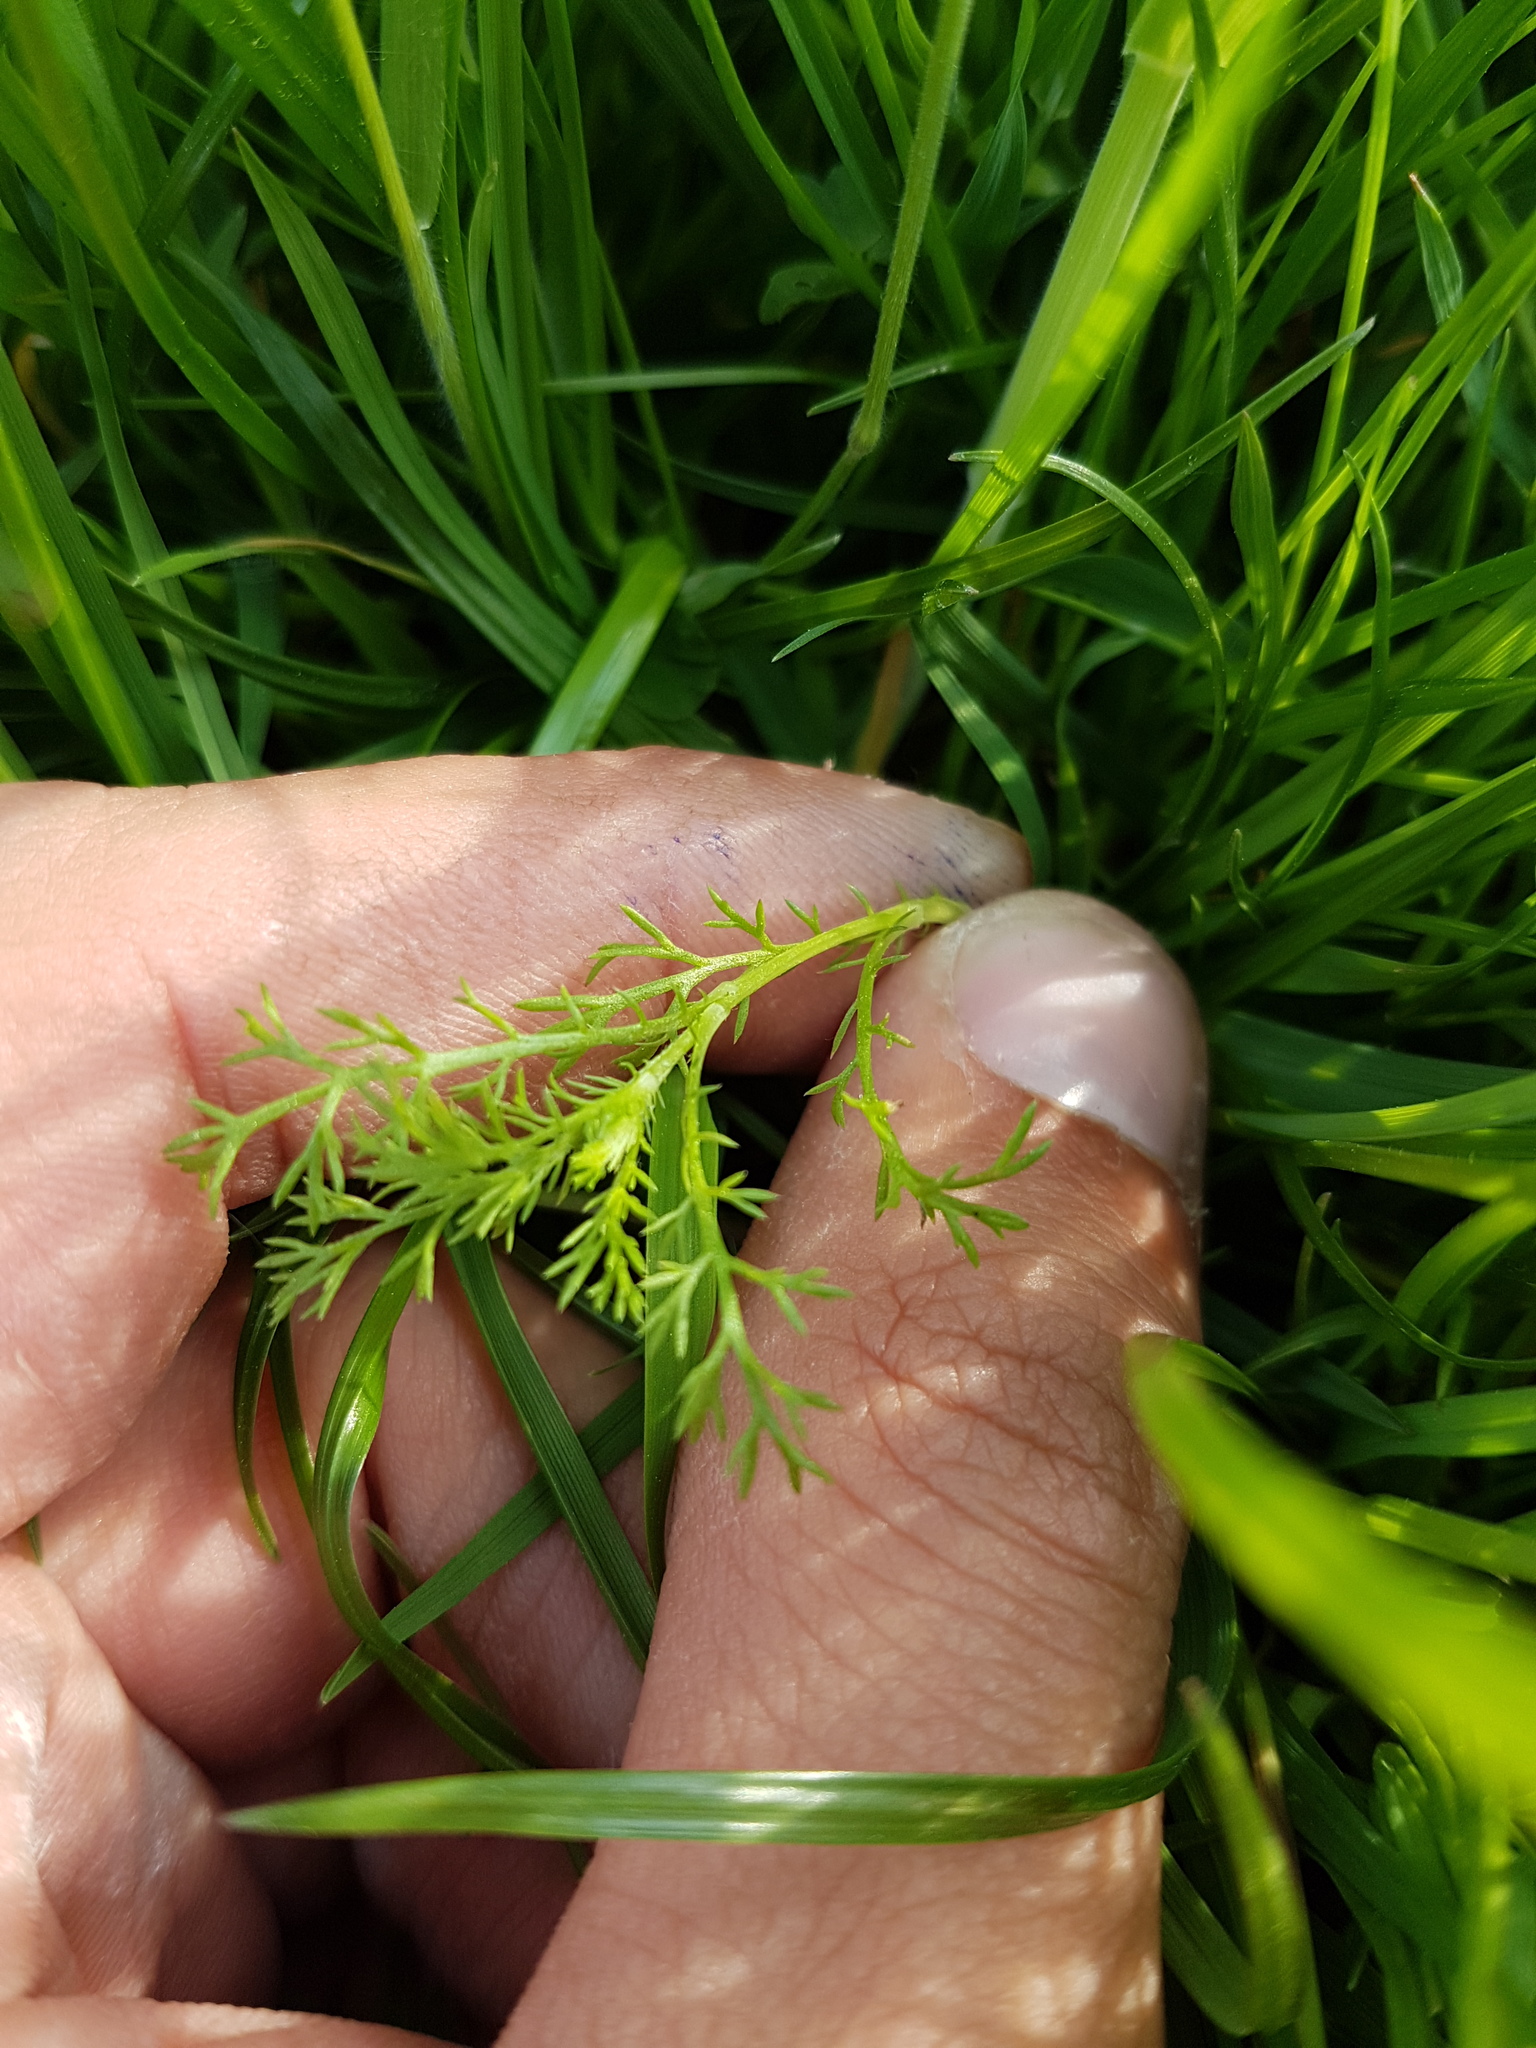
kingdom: Plantae
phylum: Tracheophyta
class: Magnoliopsida
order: Asterales
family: Asteraceae
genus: Matricaria
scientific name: Matricaria chamomilla
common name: Scented mayweed
